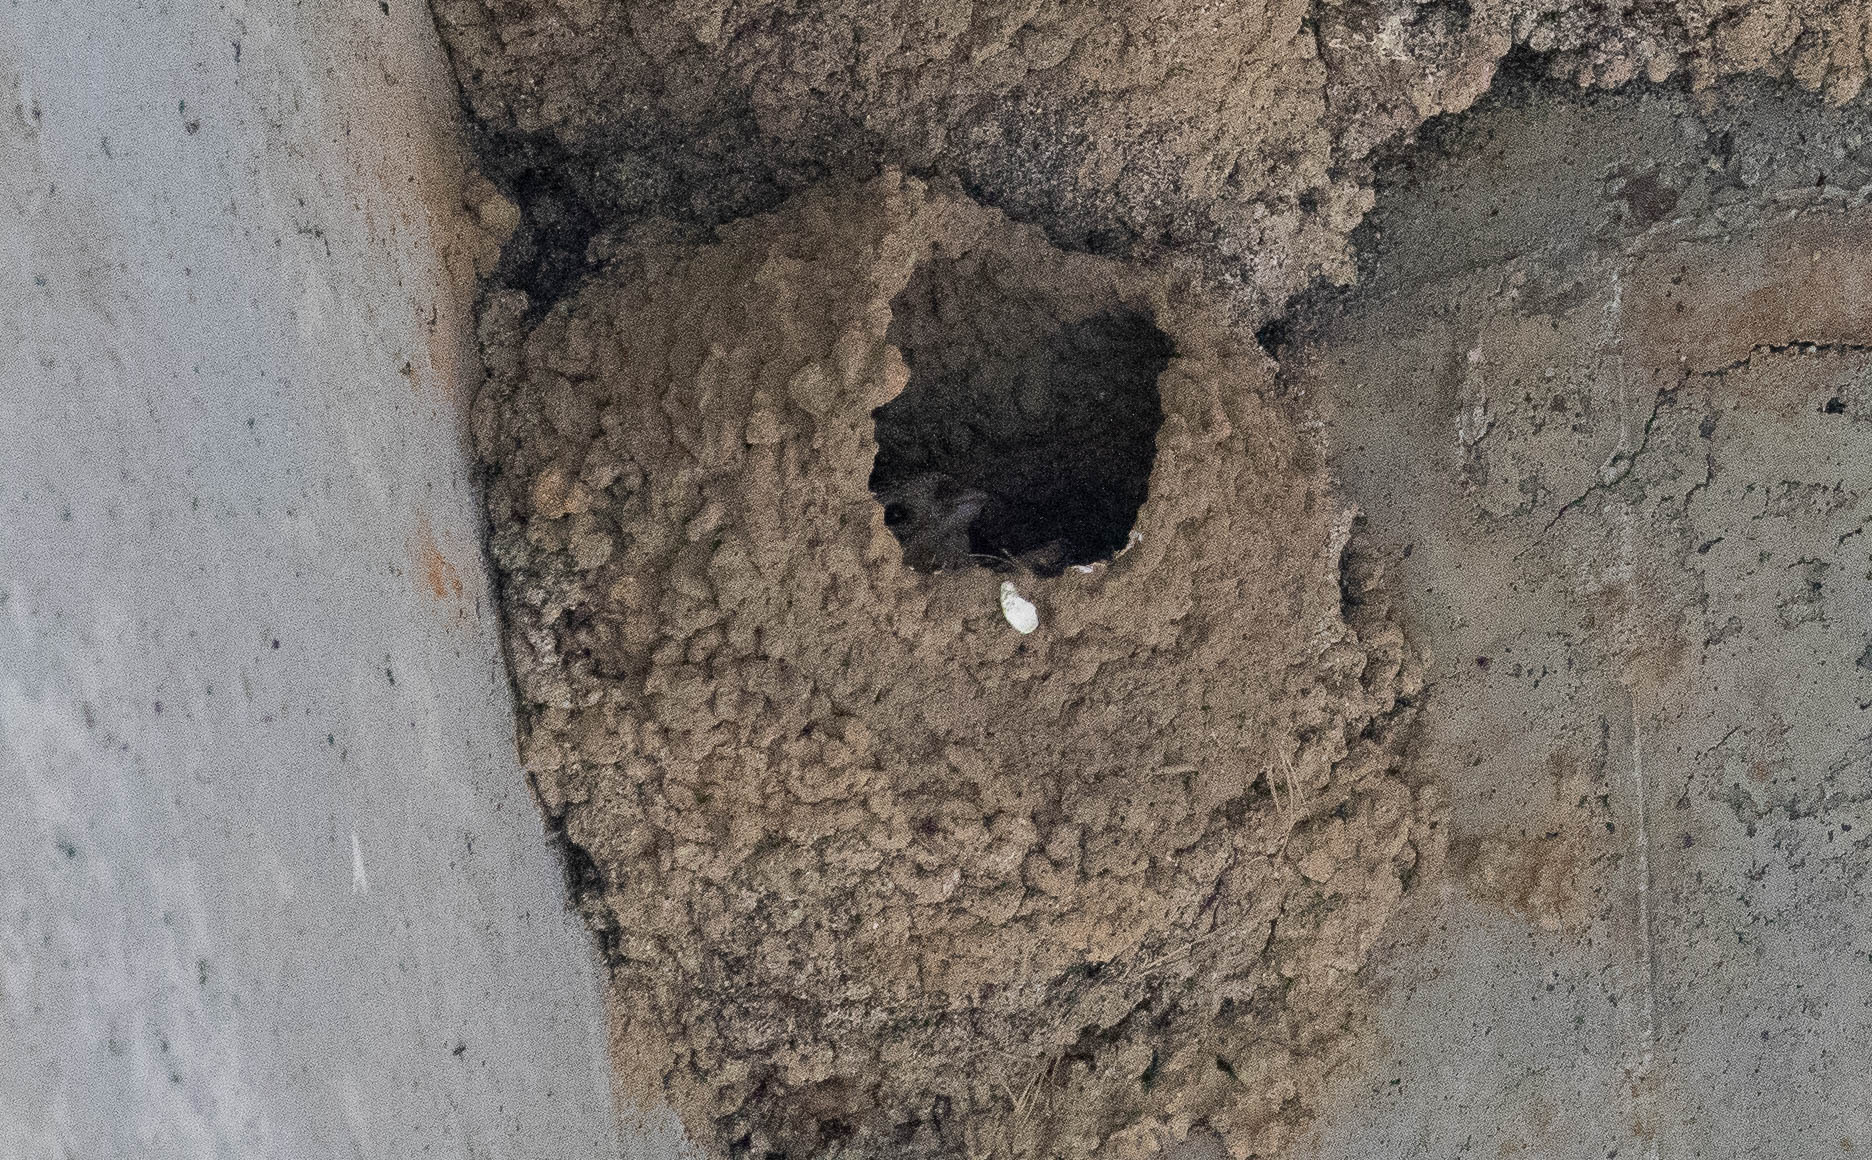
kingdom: Animalia
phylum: Chordata
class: Aves
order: Passeriformes
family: Hirundinidae
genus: Petrochelidon
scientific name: Petrochelidon pyrrhonota
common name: American cliff swallow
